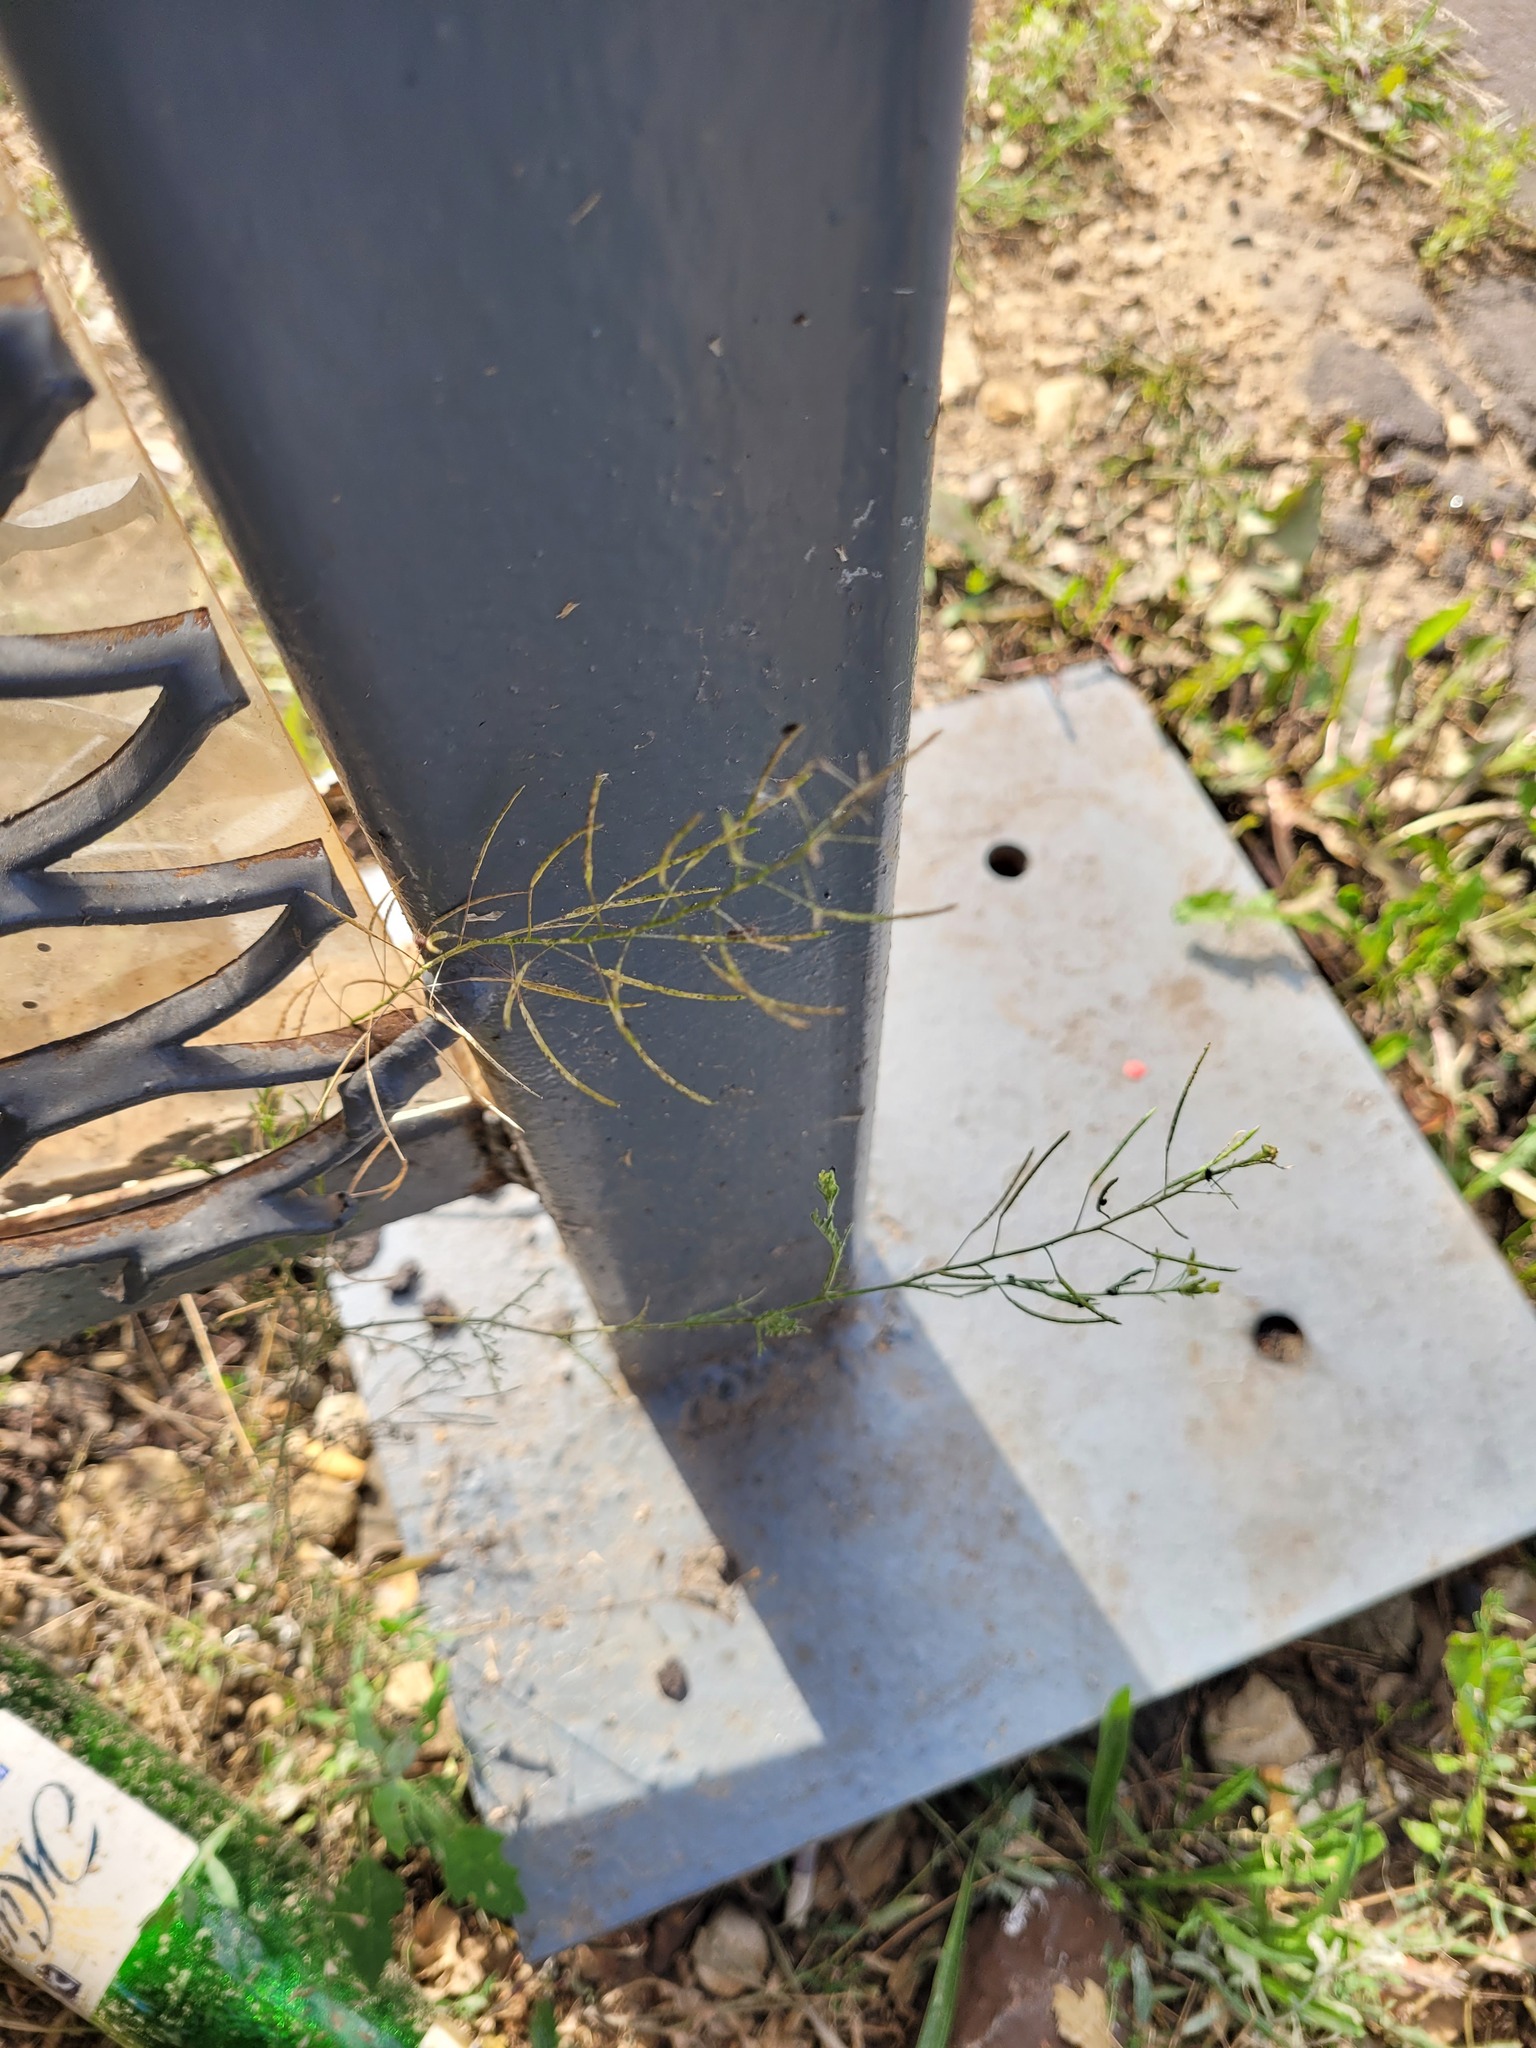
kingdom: Plantae
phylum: Tracheophyta
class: Magnoliopsida
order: Brassicales
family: Brassicaceae
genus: Descurainia
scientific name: Descurainia sophia
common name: Flixweed
